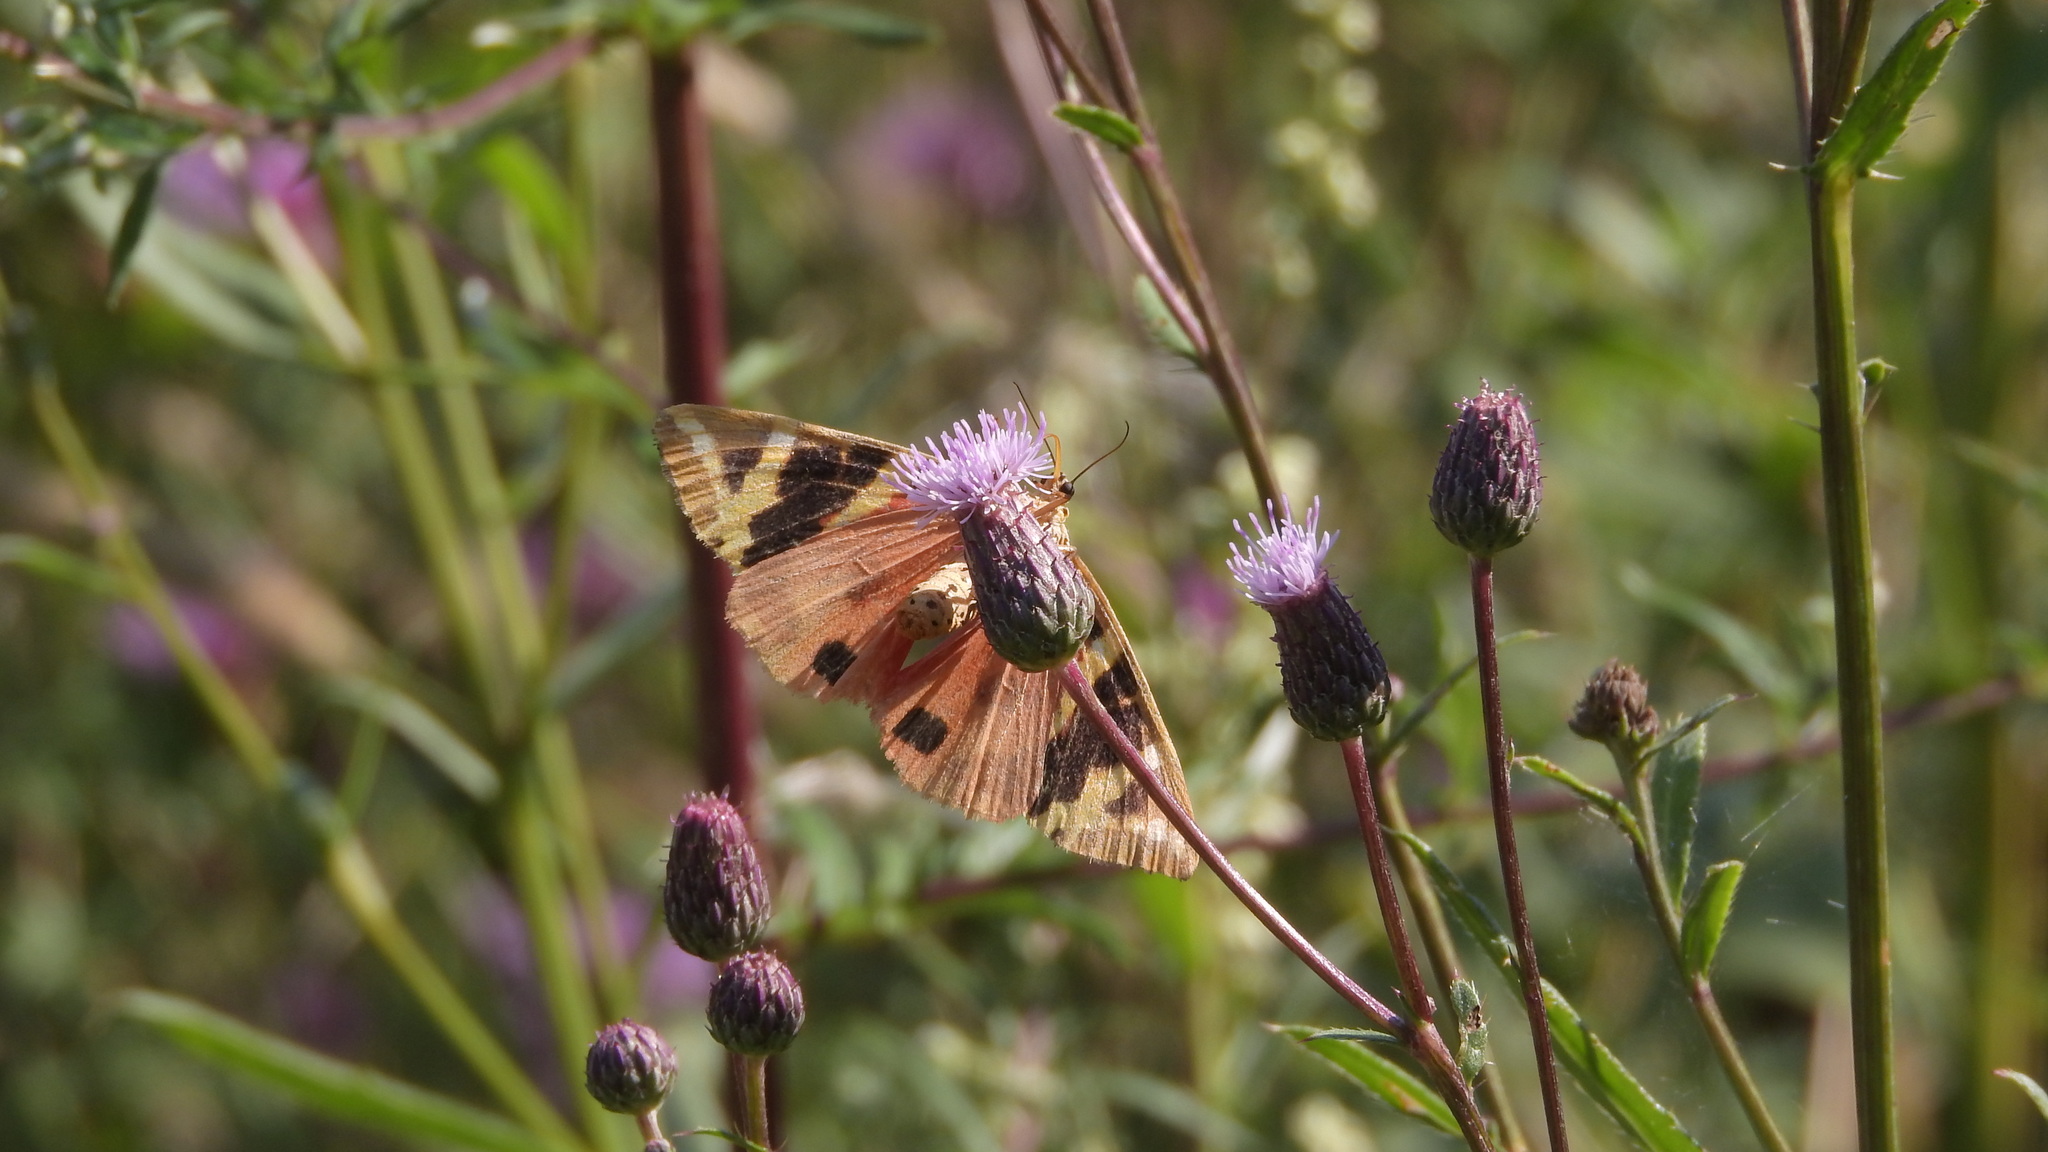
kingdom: Animalia
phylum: Arthropoda
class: Insecta
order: Lepidoptera
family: Erebidae
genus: Euplagia
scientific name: Euplagia quadripunctaria
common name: Jersey tiger
